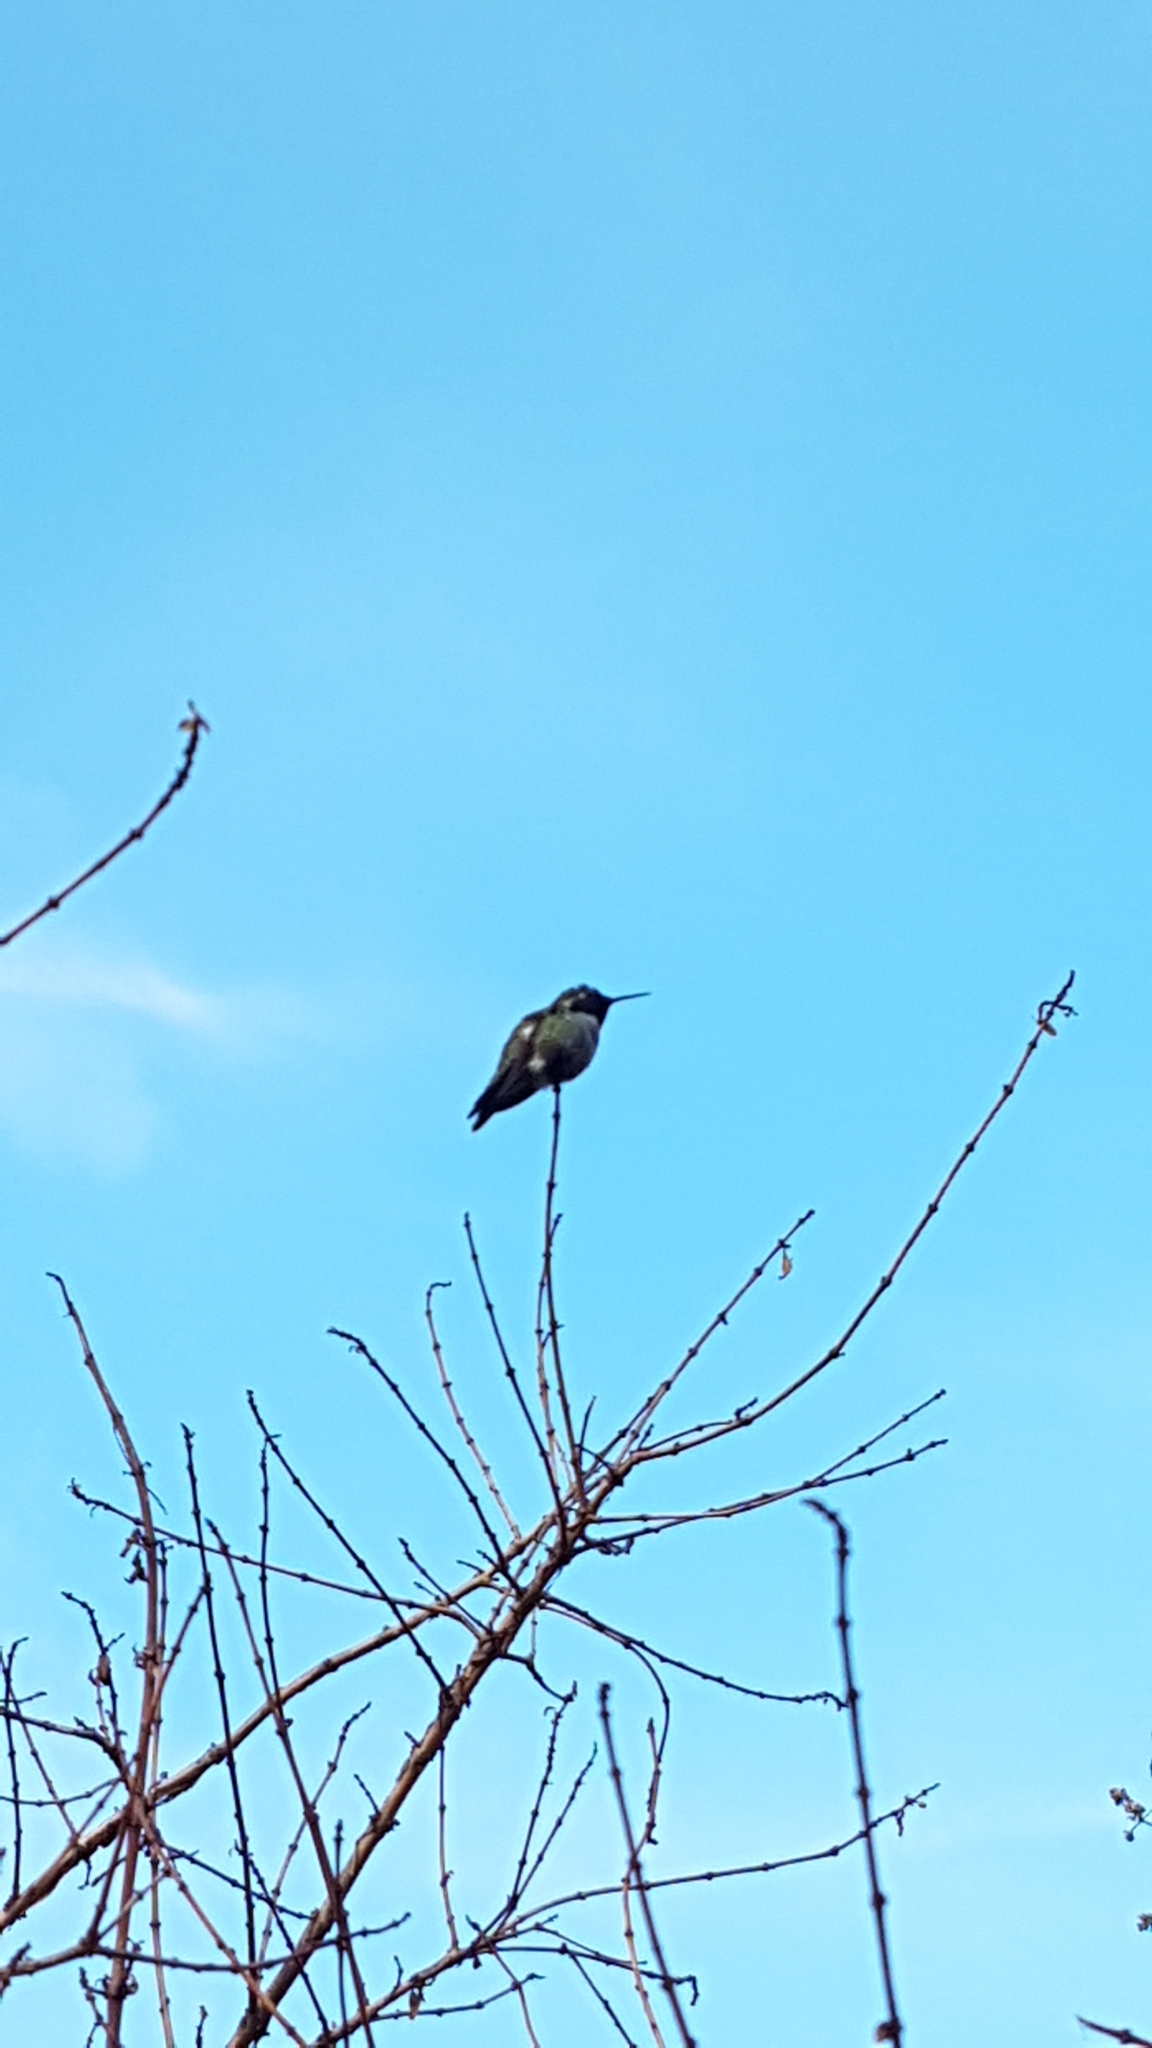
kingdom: Animalia
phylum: Chordata
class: Aves
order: Apodiformes
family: Trochilidae
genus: Calypte
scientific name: Calypte anna
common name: Anna's hummingbird
